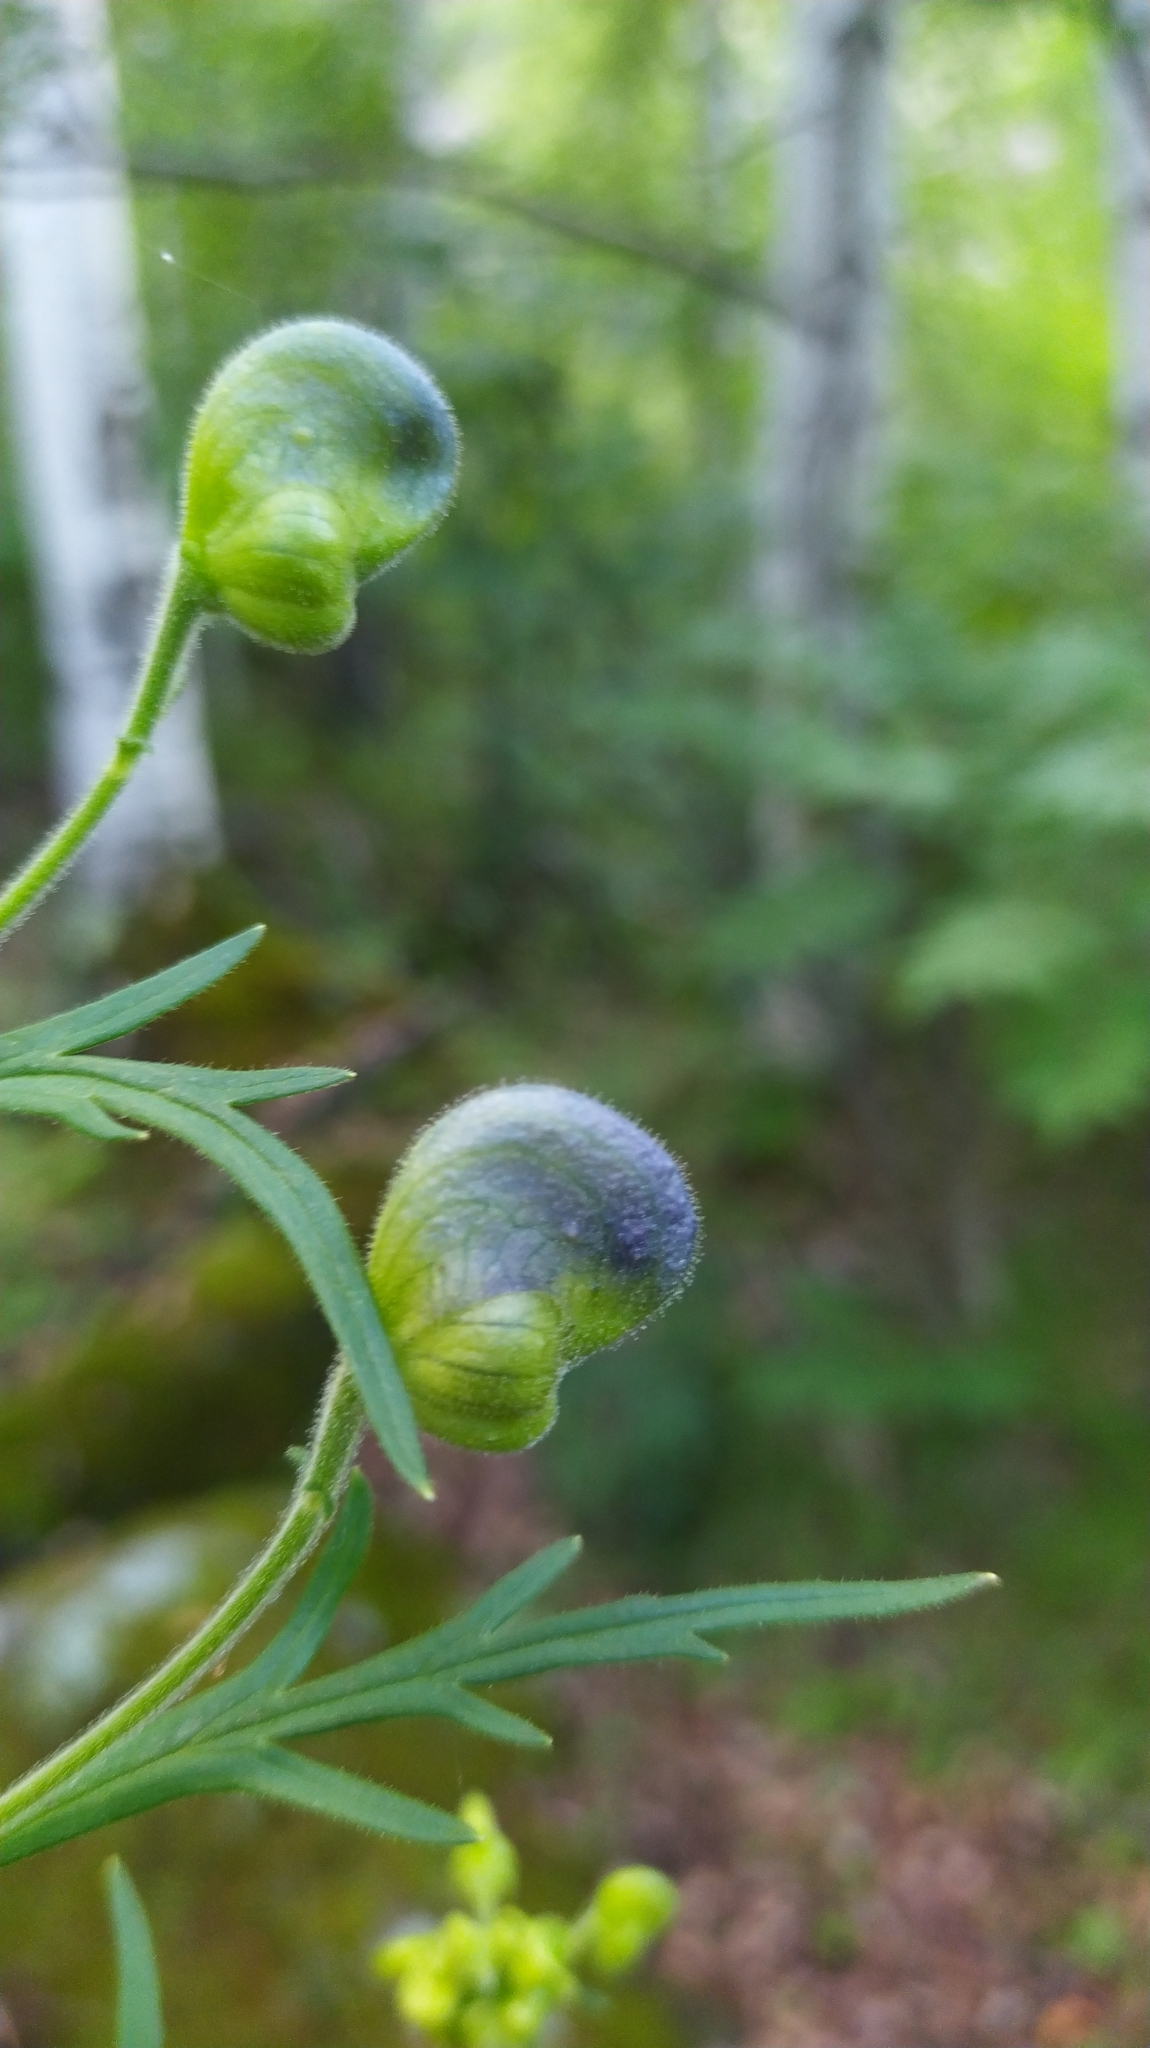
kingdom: Plantae
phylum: Tracheophyta
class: Magnoliopsida
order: Ranunculales
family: Ranunculaceae
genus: Aconitum
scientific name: Aconitum baicalense
